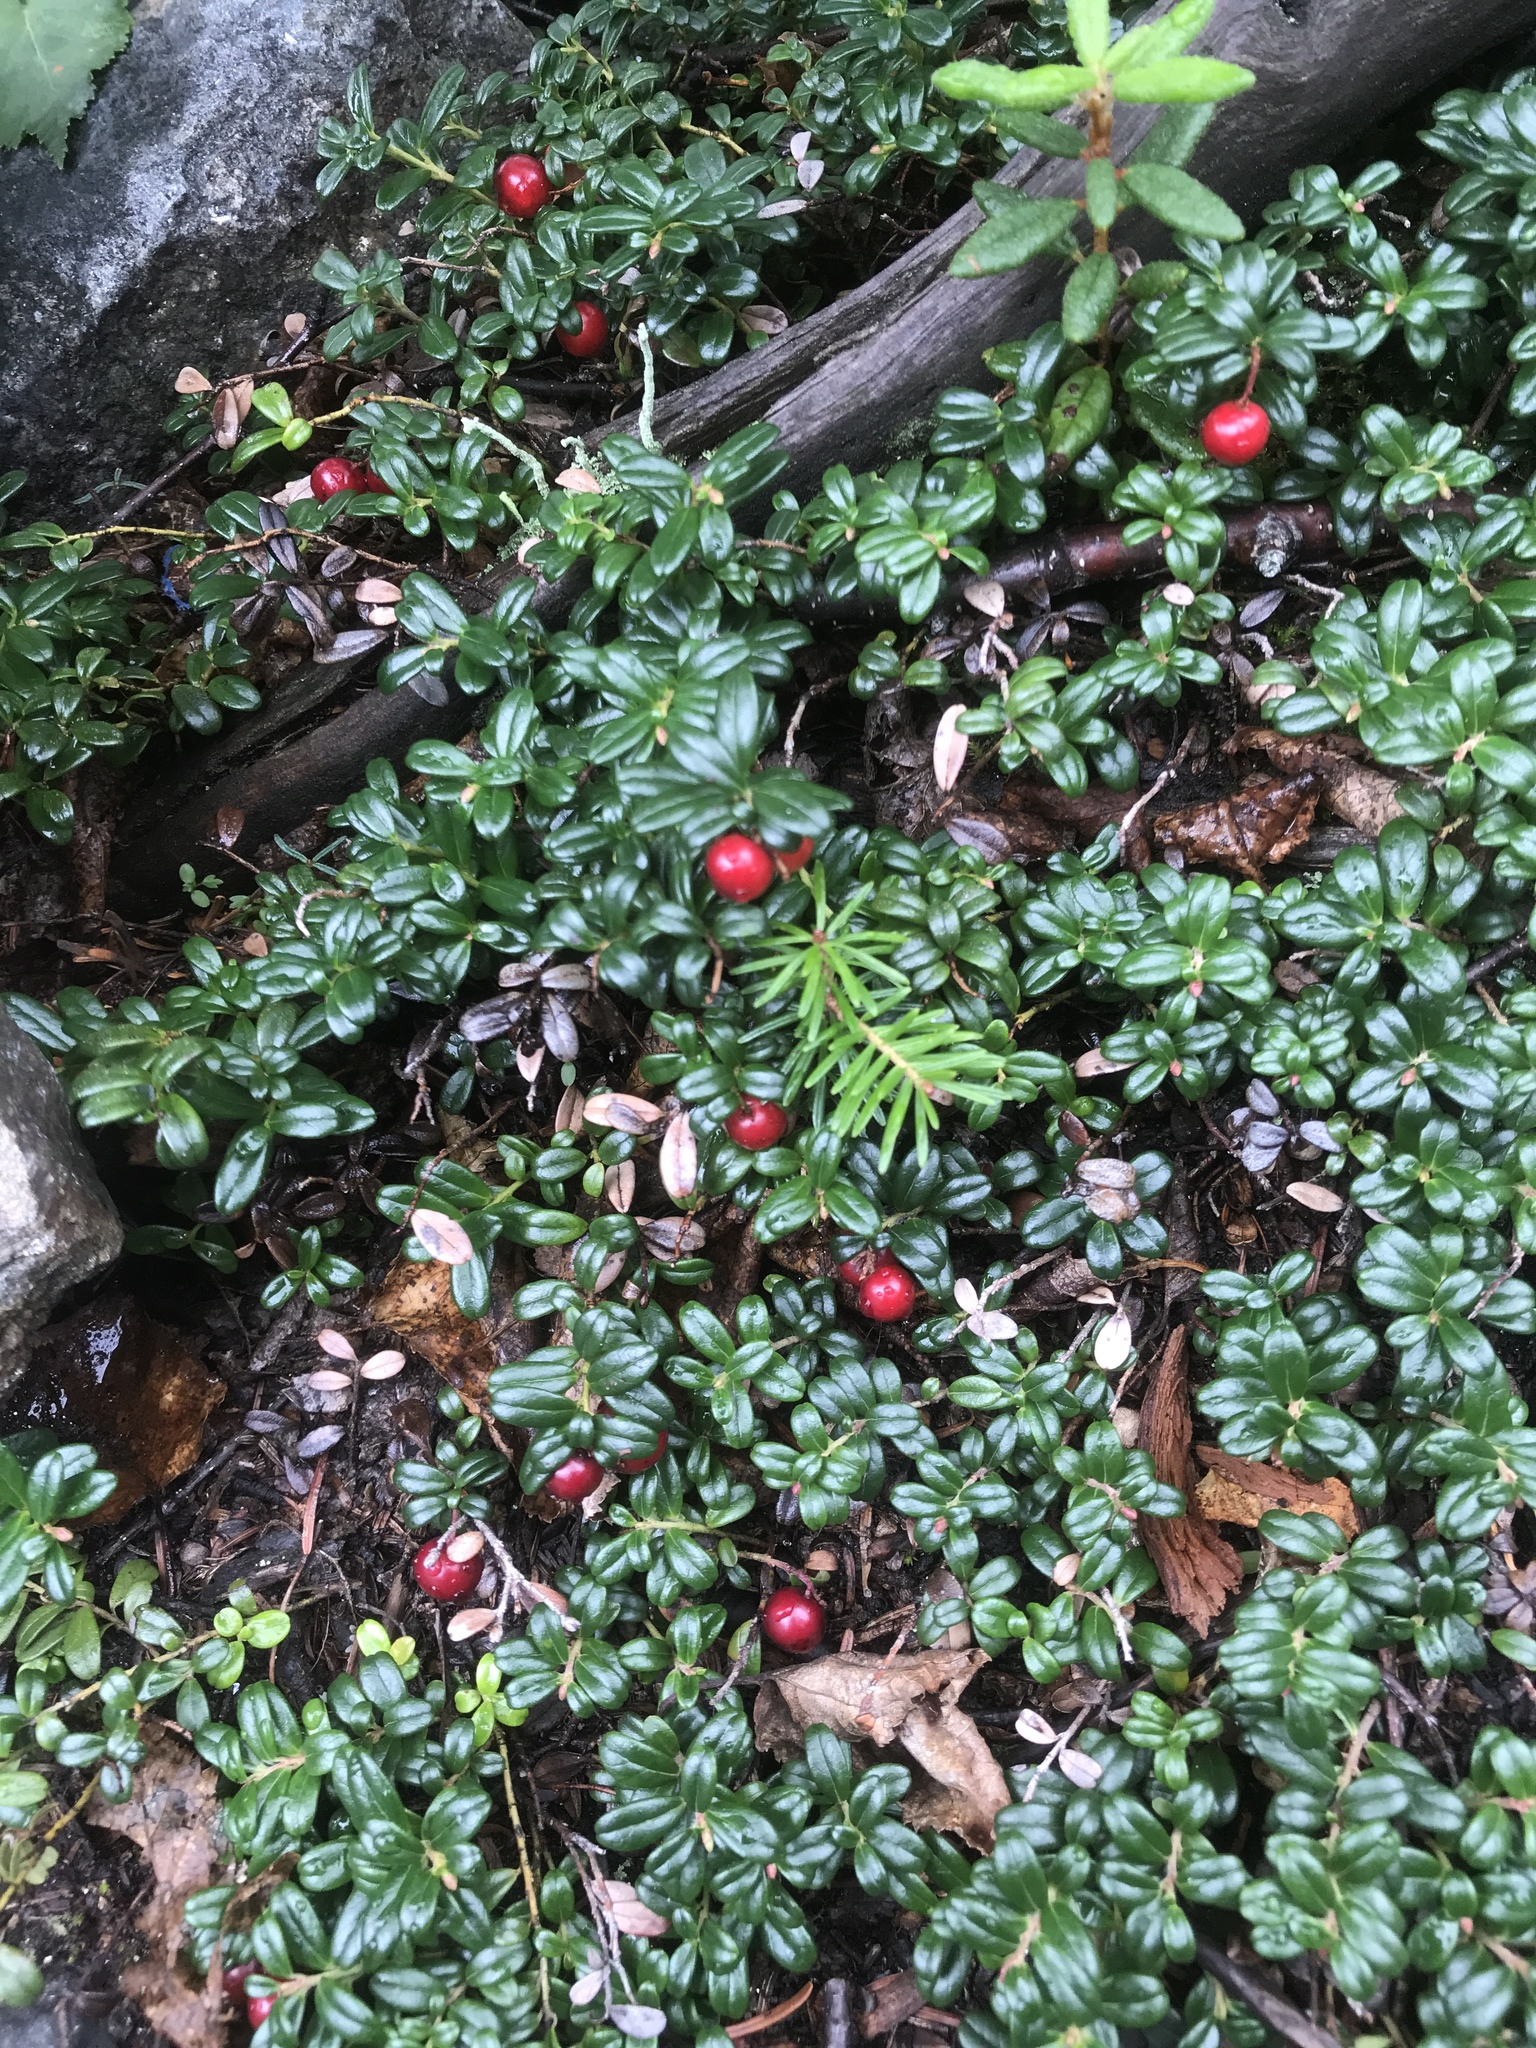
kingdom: Plantae
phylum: Tracheophyta
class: Magnoliopsida
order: Ericales
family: Ericaceae
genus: Vaccinium
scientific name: Vaccinium vitis-idaea
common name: Cowberry
